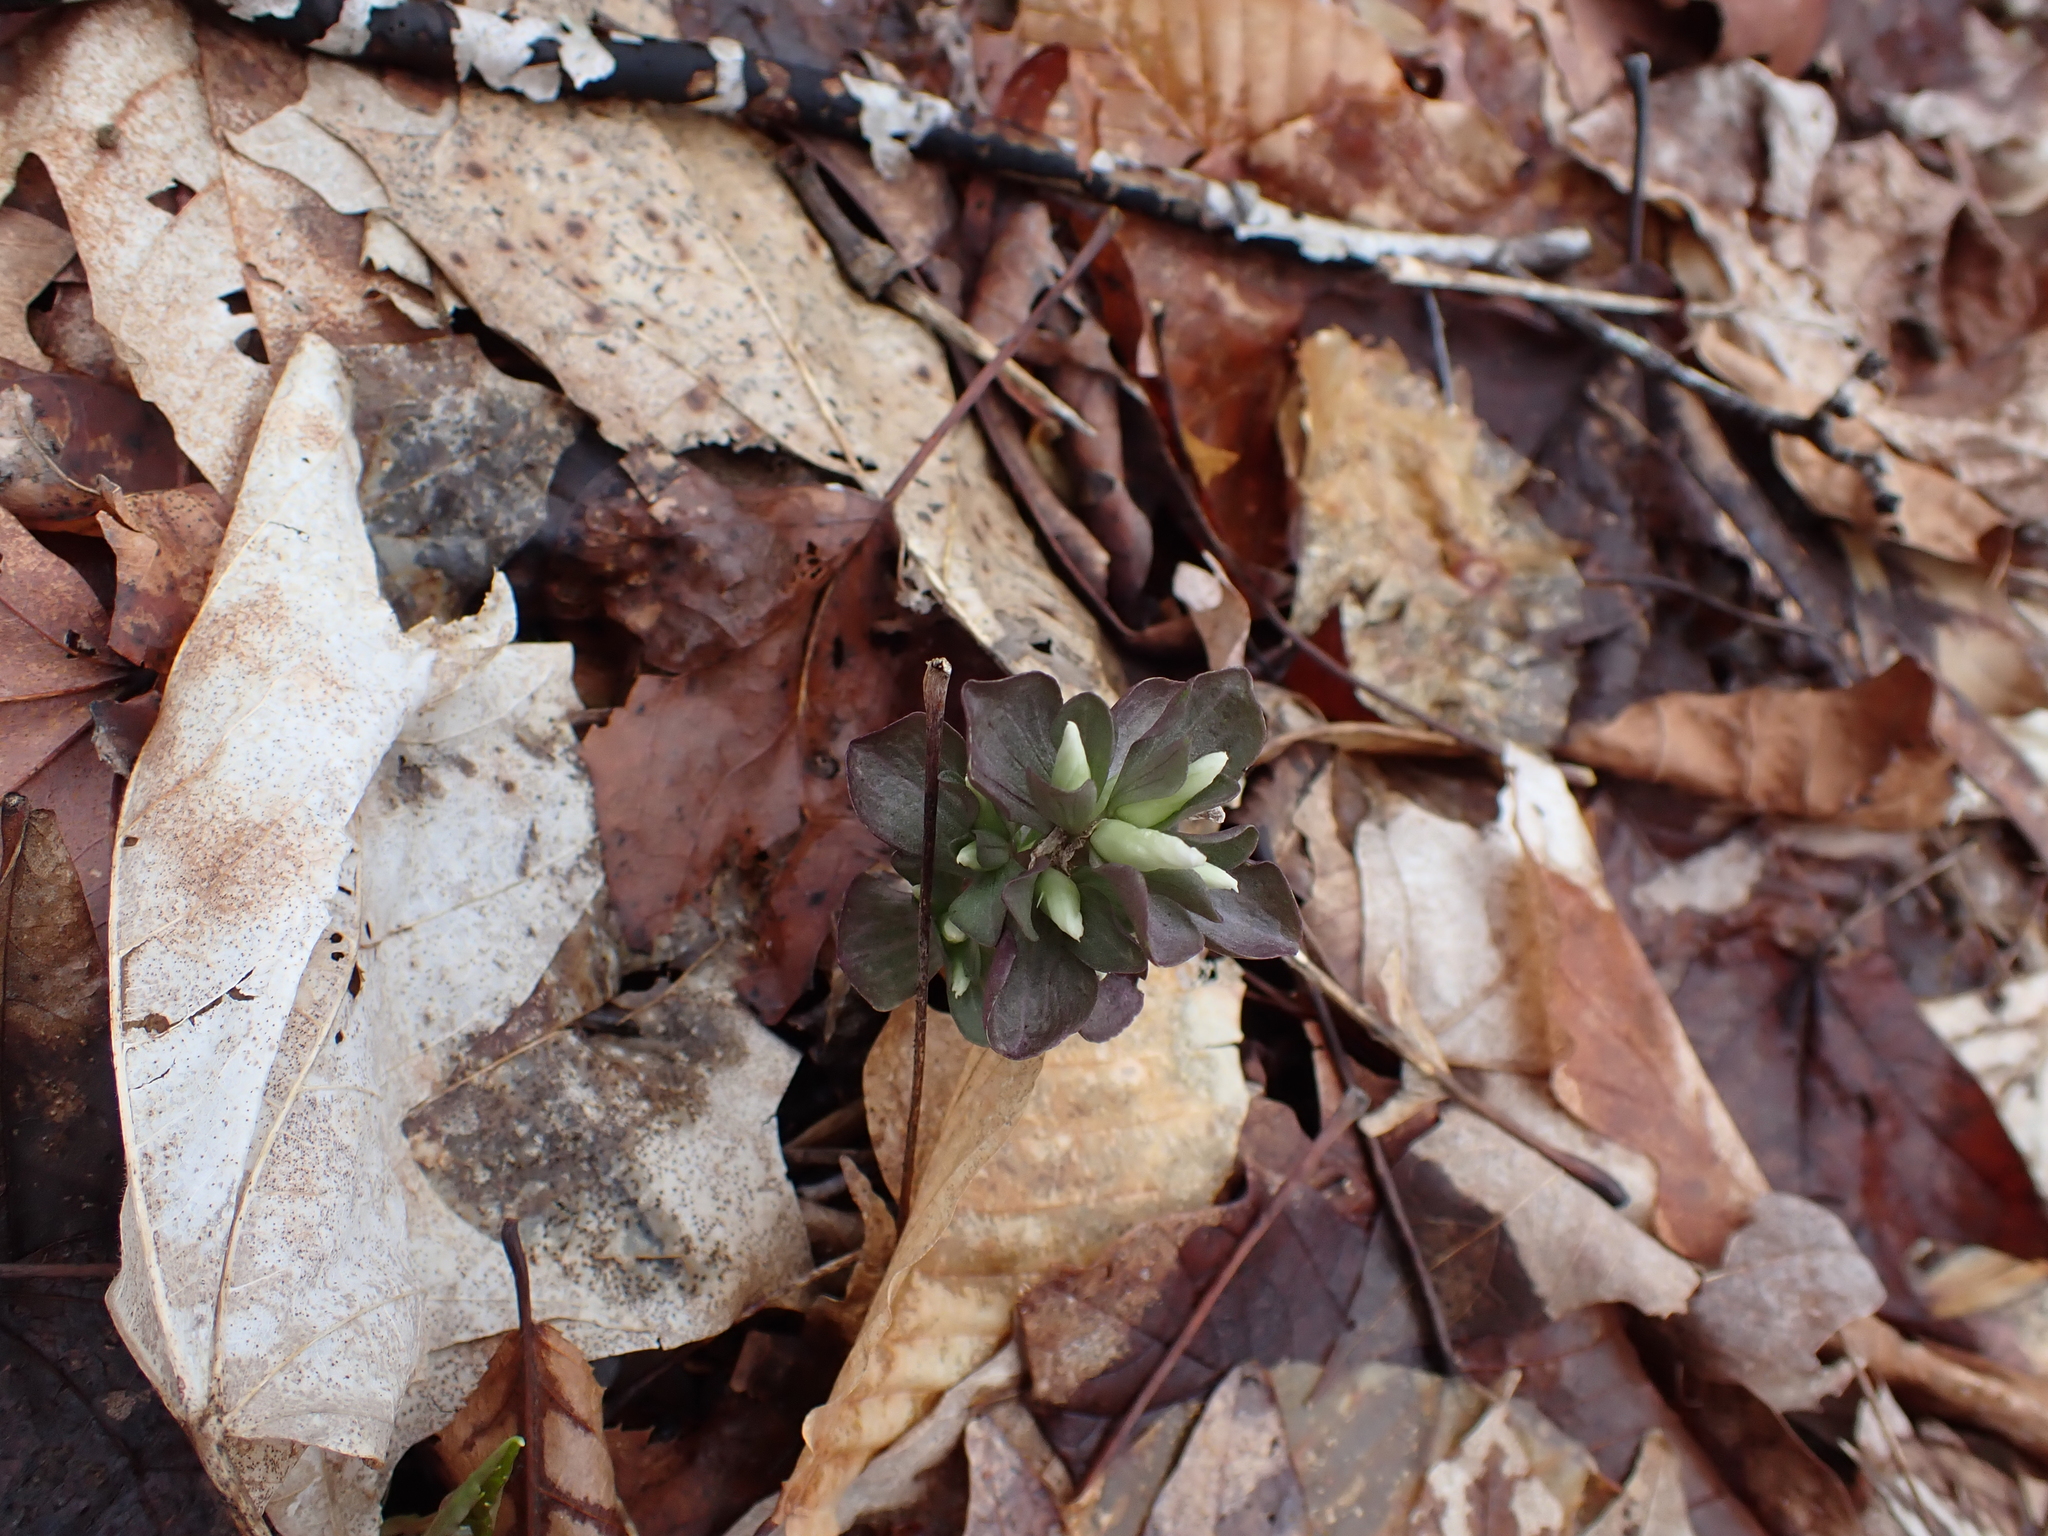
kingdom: Plantae
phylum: Tracheophyta
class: Magnoliopsida
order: Gentianales
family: Gentianaceae
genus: Obolaria
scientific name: Obolaria virginica
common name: Pennywort
